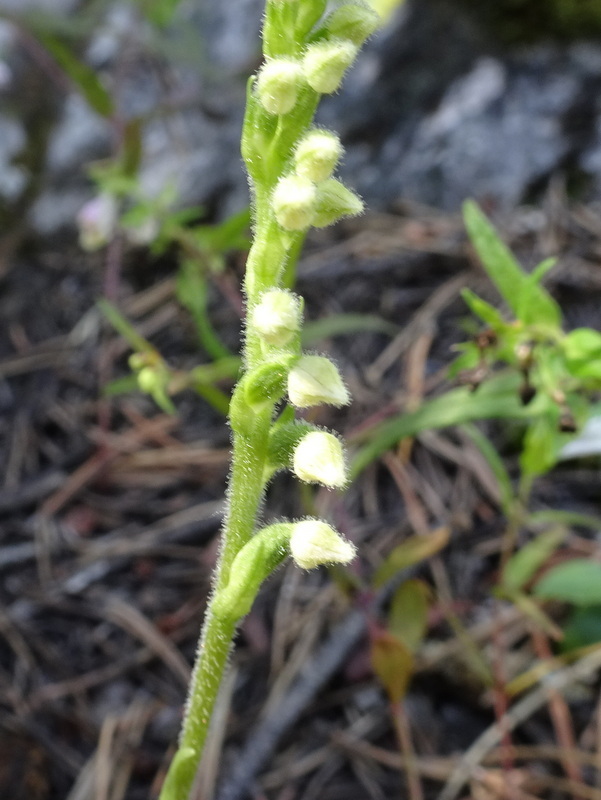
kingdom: Plantae
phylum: Tracheophyta
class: Liliopsida
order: Asparagales
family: Orchidaceae
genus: Goodyera
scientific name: Goodyera repens
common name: Creeping lady's-tresses
